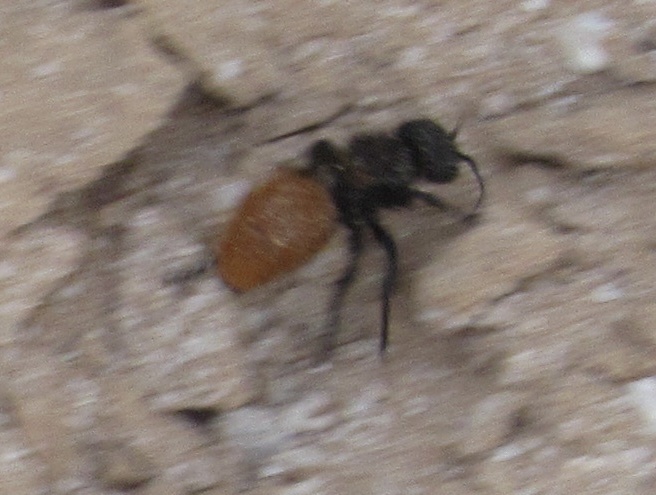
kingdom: Animalia
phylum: Arthropoda
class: Insecta
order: Hymenoptera
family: Mutillidae
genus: Dasymutilla
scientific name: Dasymutilla gorgon
